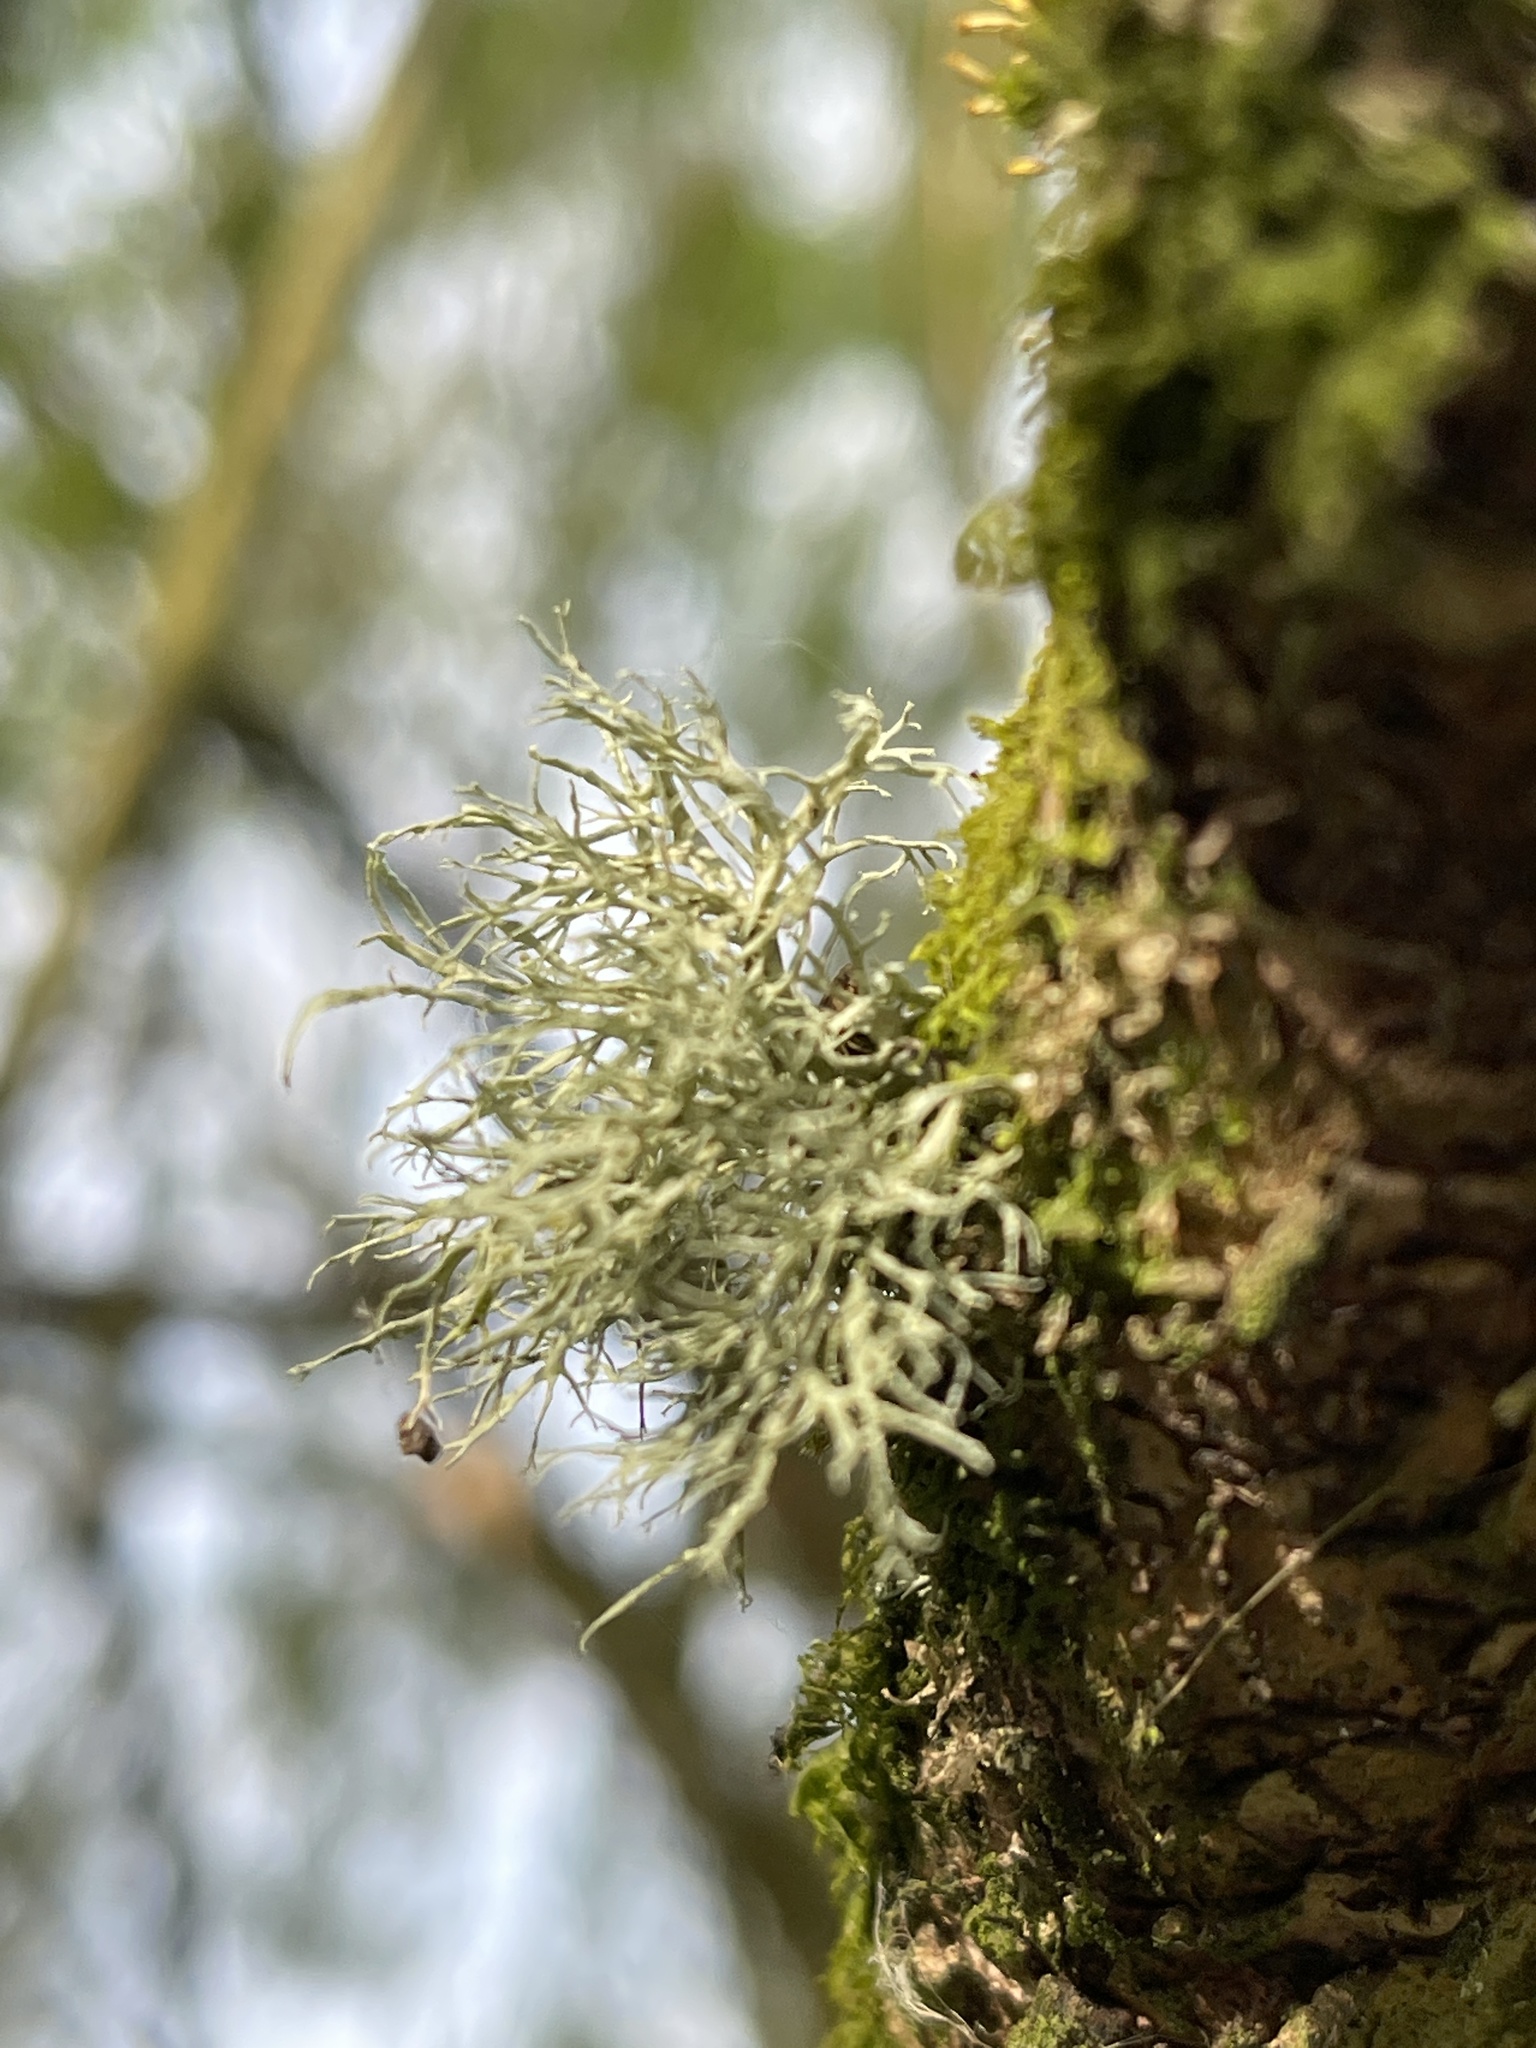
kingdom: Fungi
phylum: Ascomycota
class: Lecanoromycetes
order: Lecanorales
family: Ramalinaceae
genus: Ramalina
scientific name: Ramalina farinacea
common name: Farinose cartilage lichen
